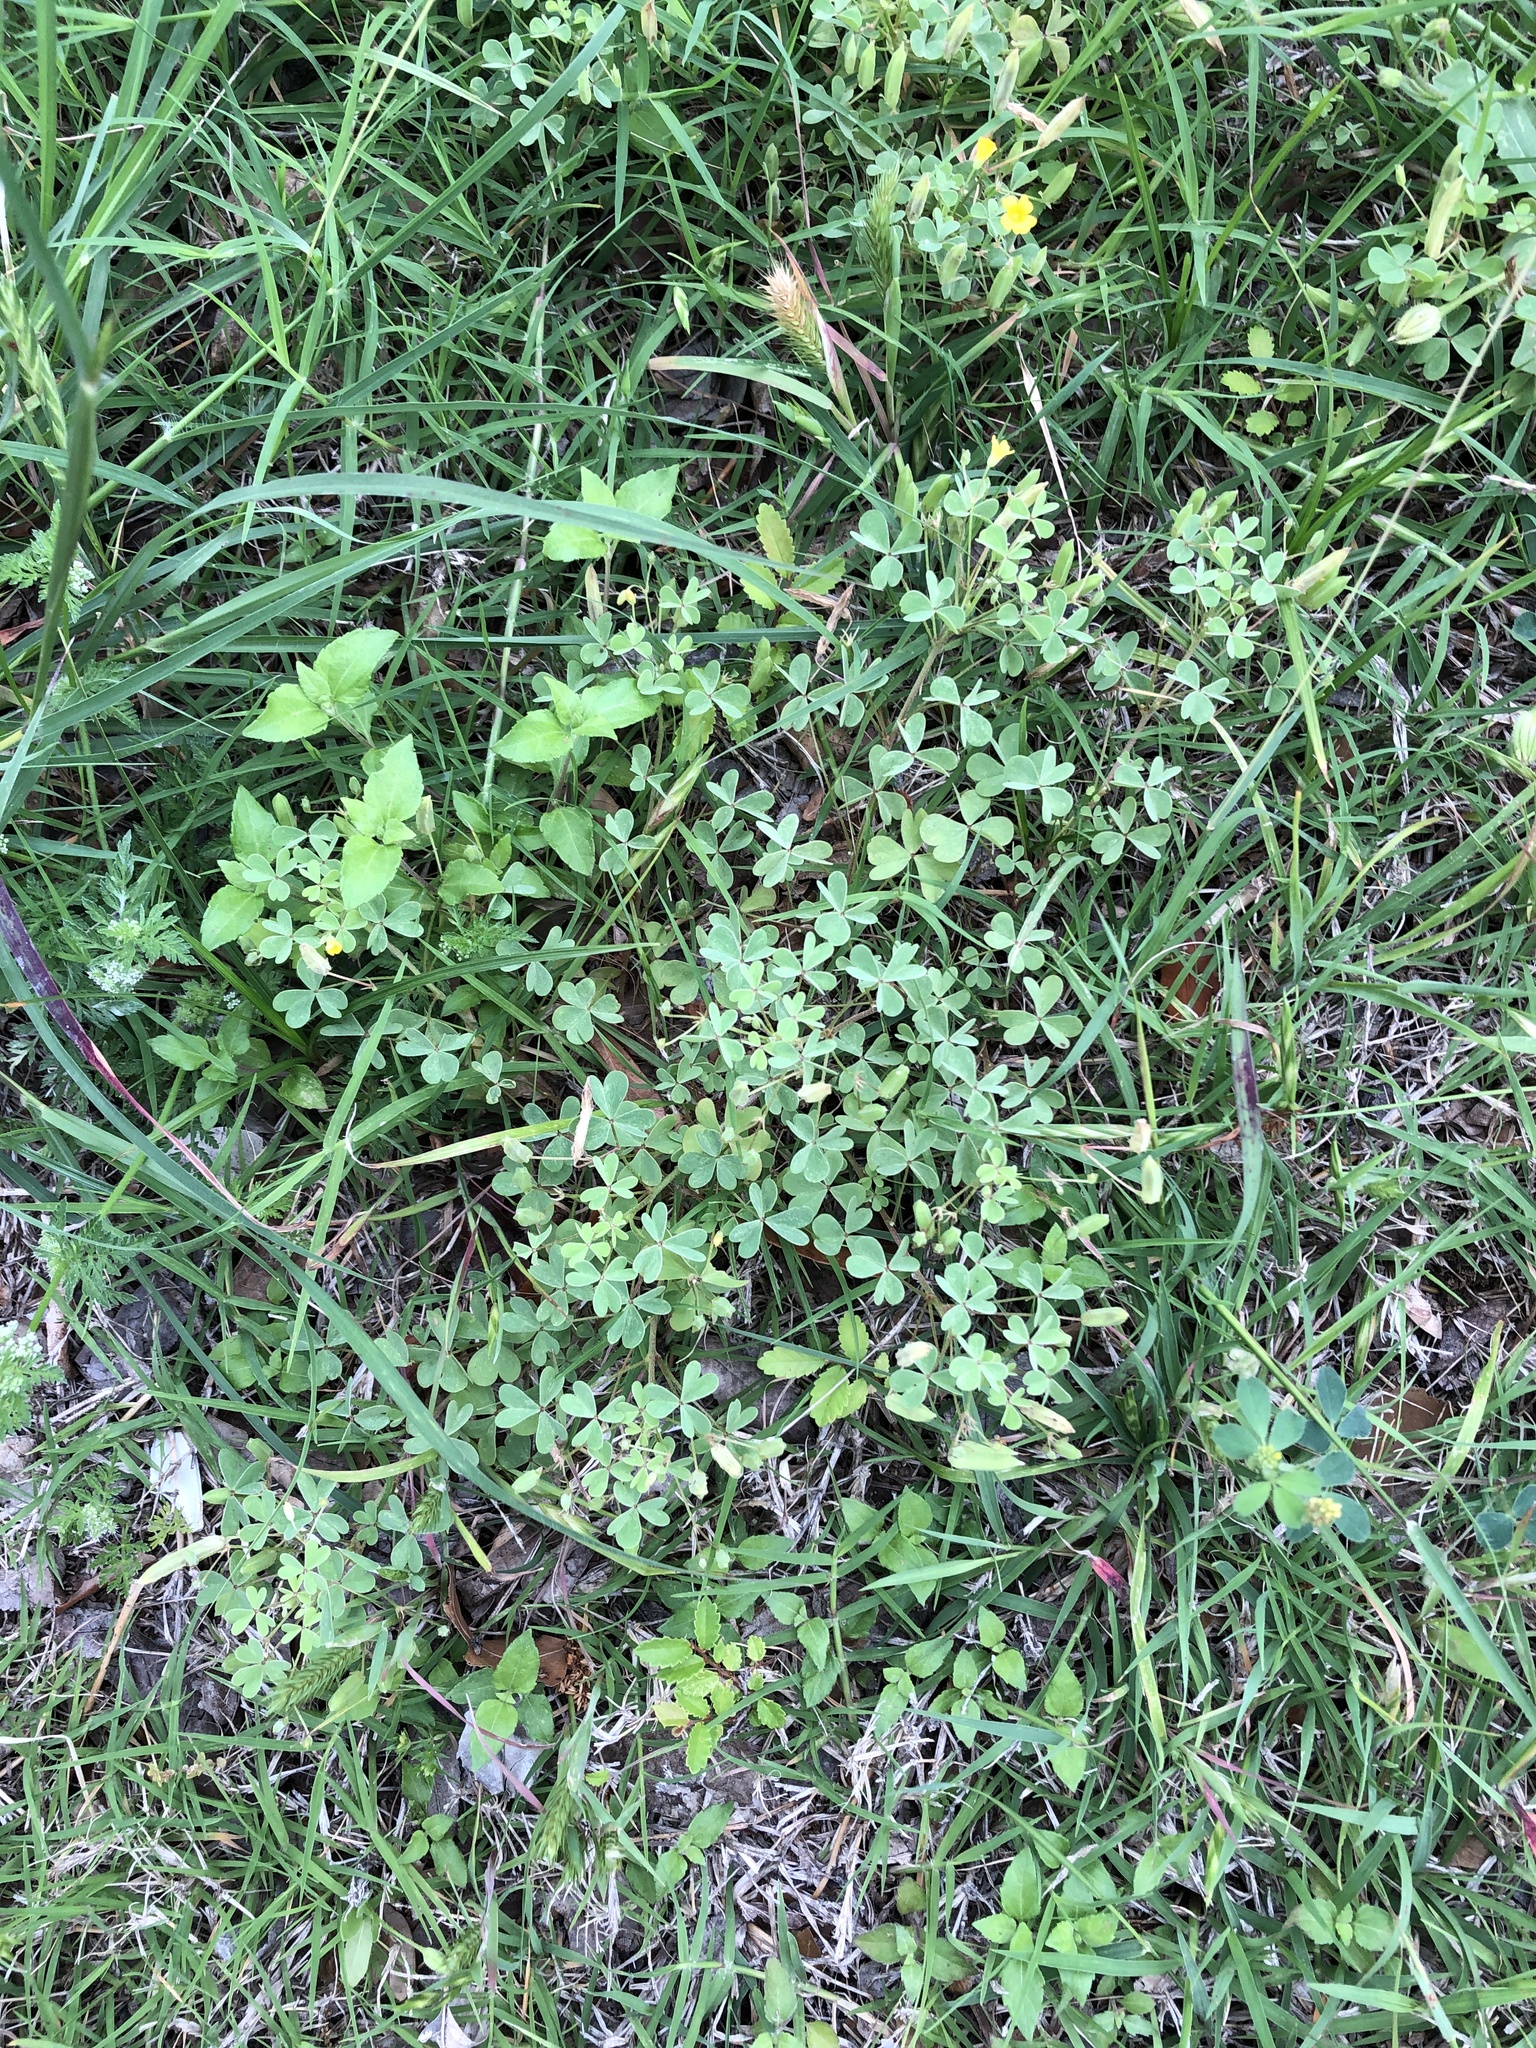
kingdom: Plantae
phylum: Tracheophyta
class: Magnoliopsida
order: Oxalidales
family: Oxalidaceae
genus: Oxalis
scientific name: Oxalis dillenii
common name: Sussex yellow-sorrel
